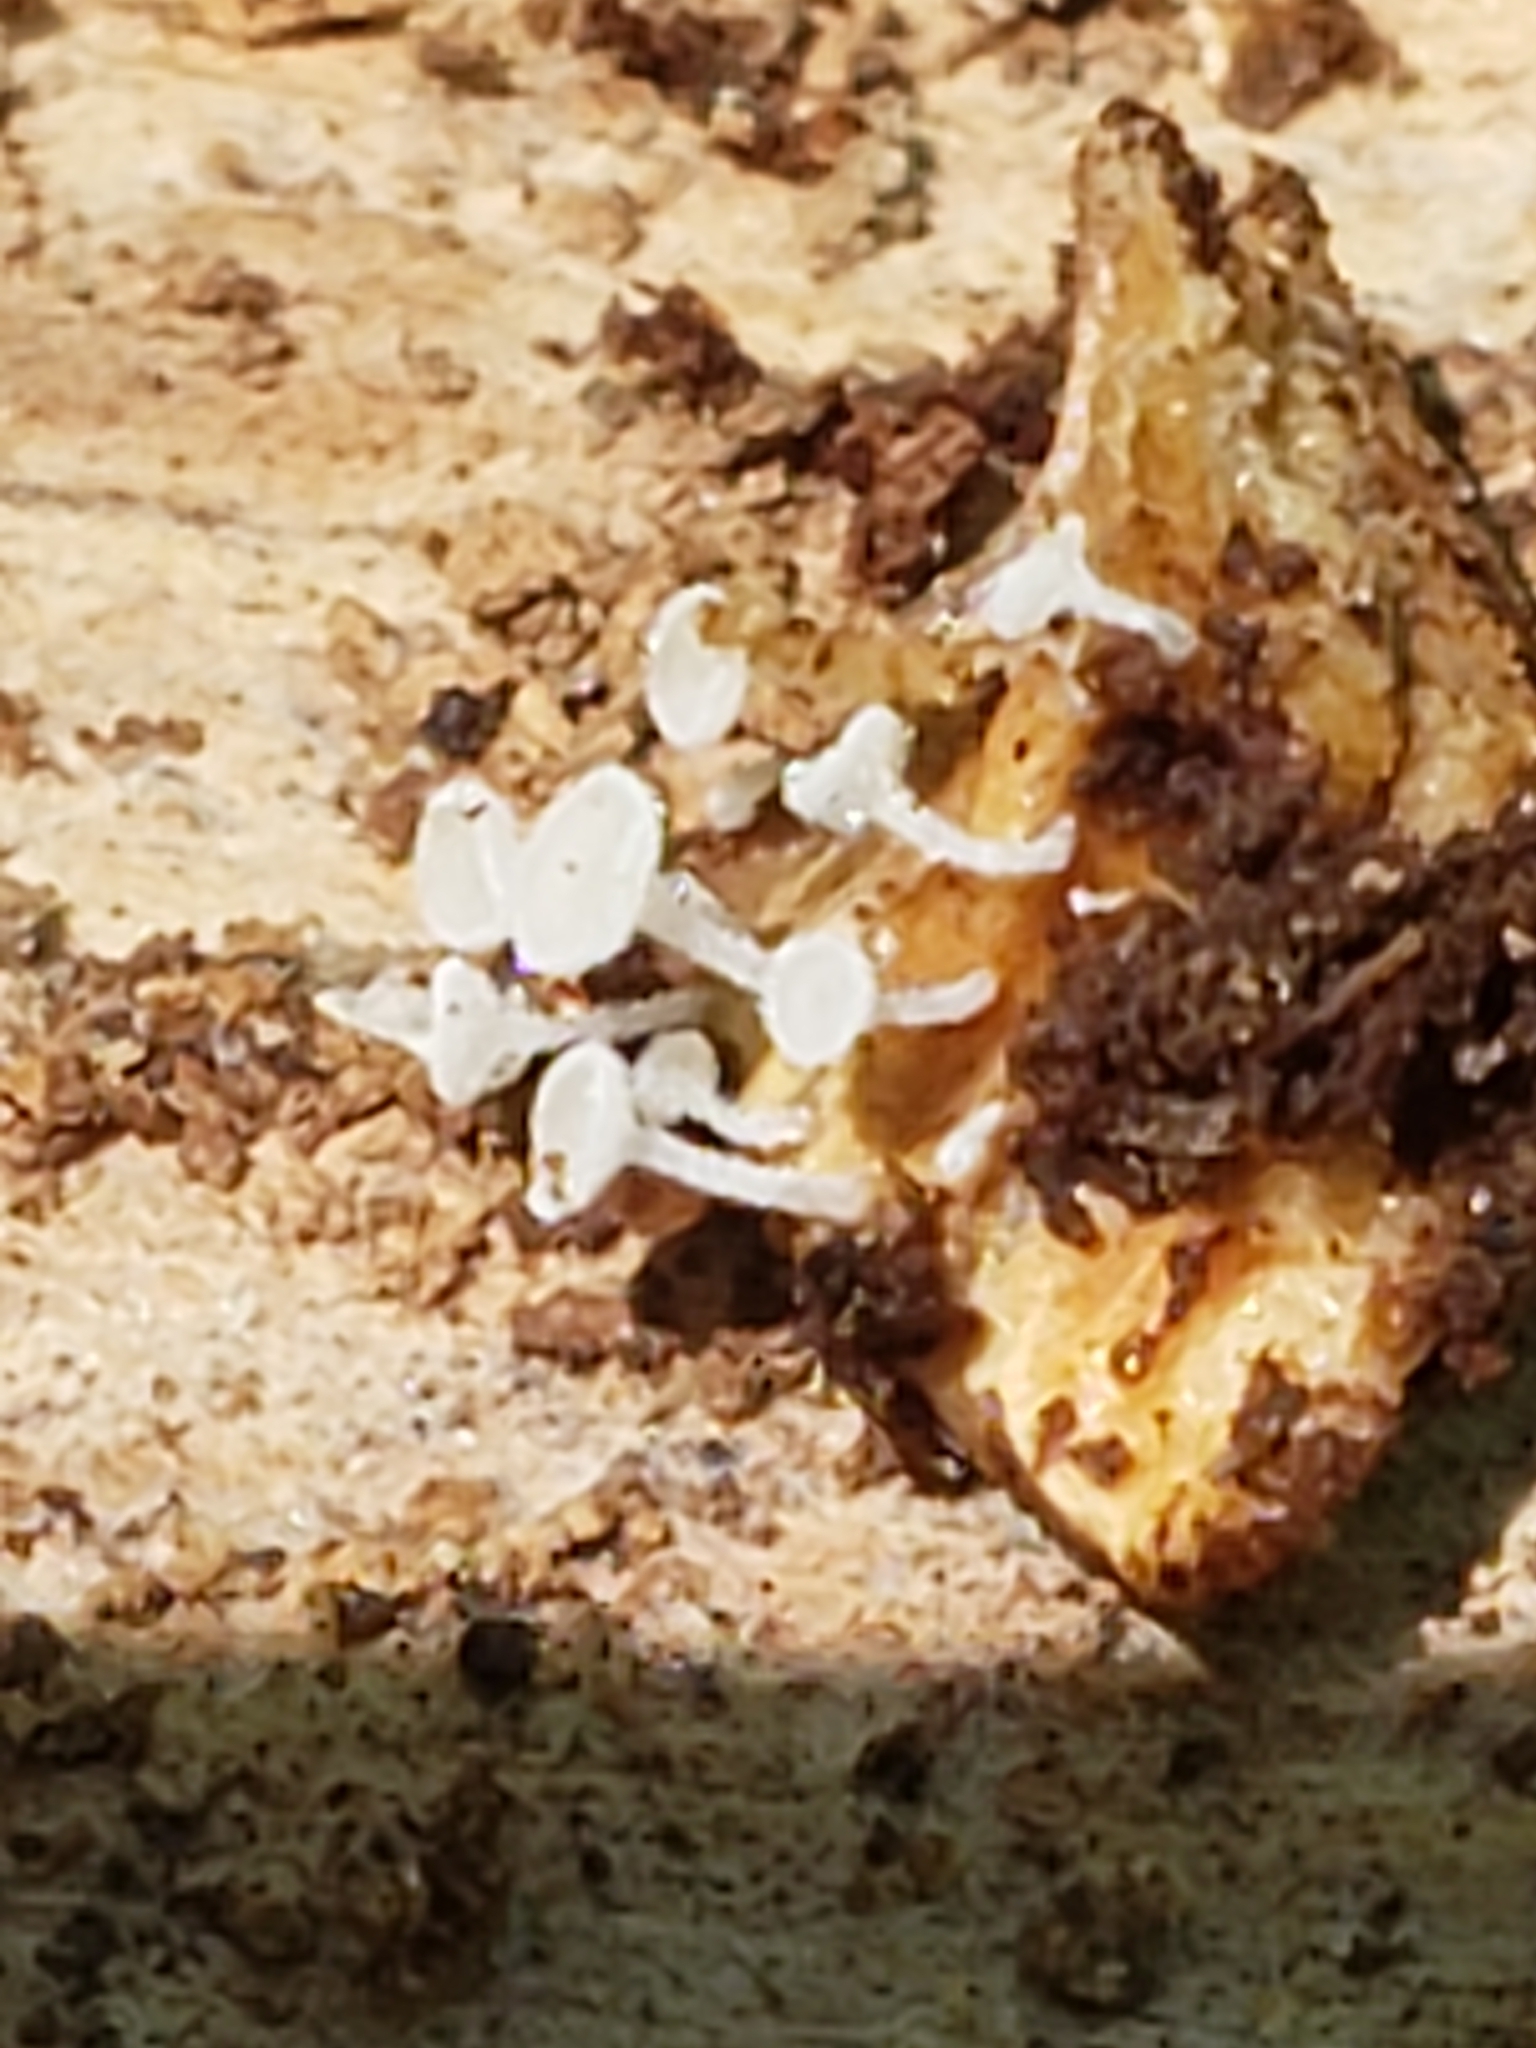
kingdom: Fungi
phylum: Ascomycota
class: Leotiomycetes
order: Helotiales
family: Lachnaceae
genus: Lachnum
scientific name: Lachnum virgineum
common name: Snowy disco
